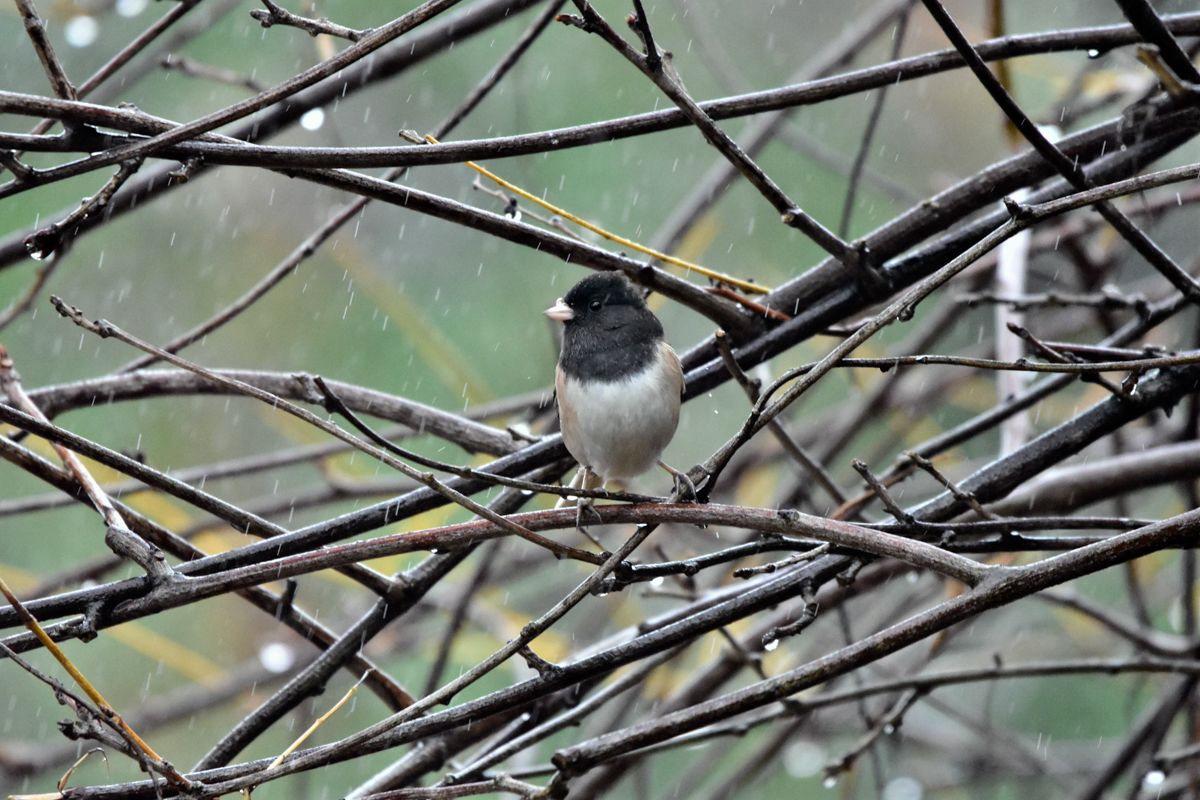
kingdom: Animalia
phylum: Chordata
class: Aves
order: Passeriformes
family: Passerellidae
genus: Junco
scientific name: Junco hyemalis
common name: Dark-eyed junco
